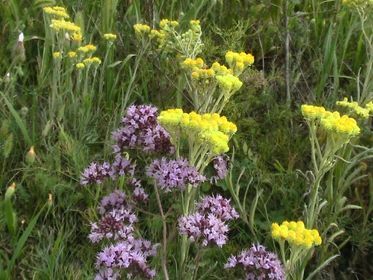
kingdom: Plantae
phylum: Tracheophyta
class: Magnoliopsida
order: Asterales
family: Asteraceae
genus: Helichrysum
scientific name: Helichrysum arenarium
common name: Strawflower
